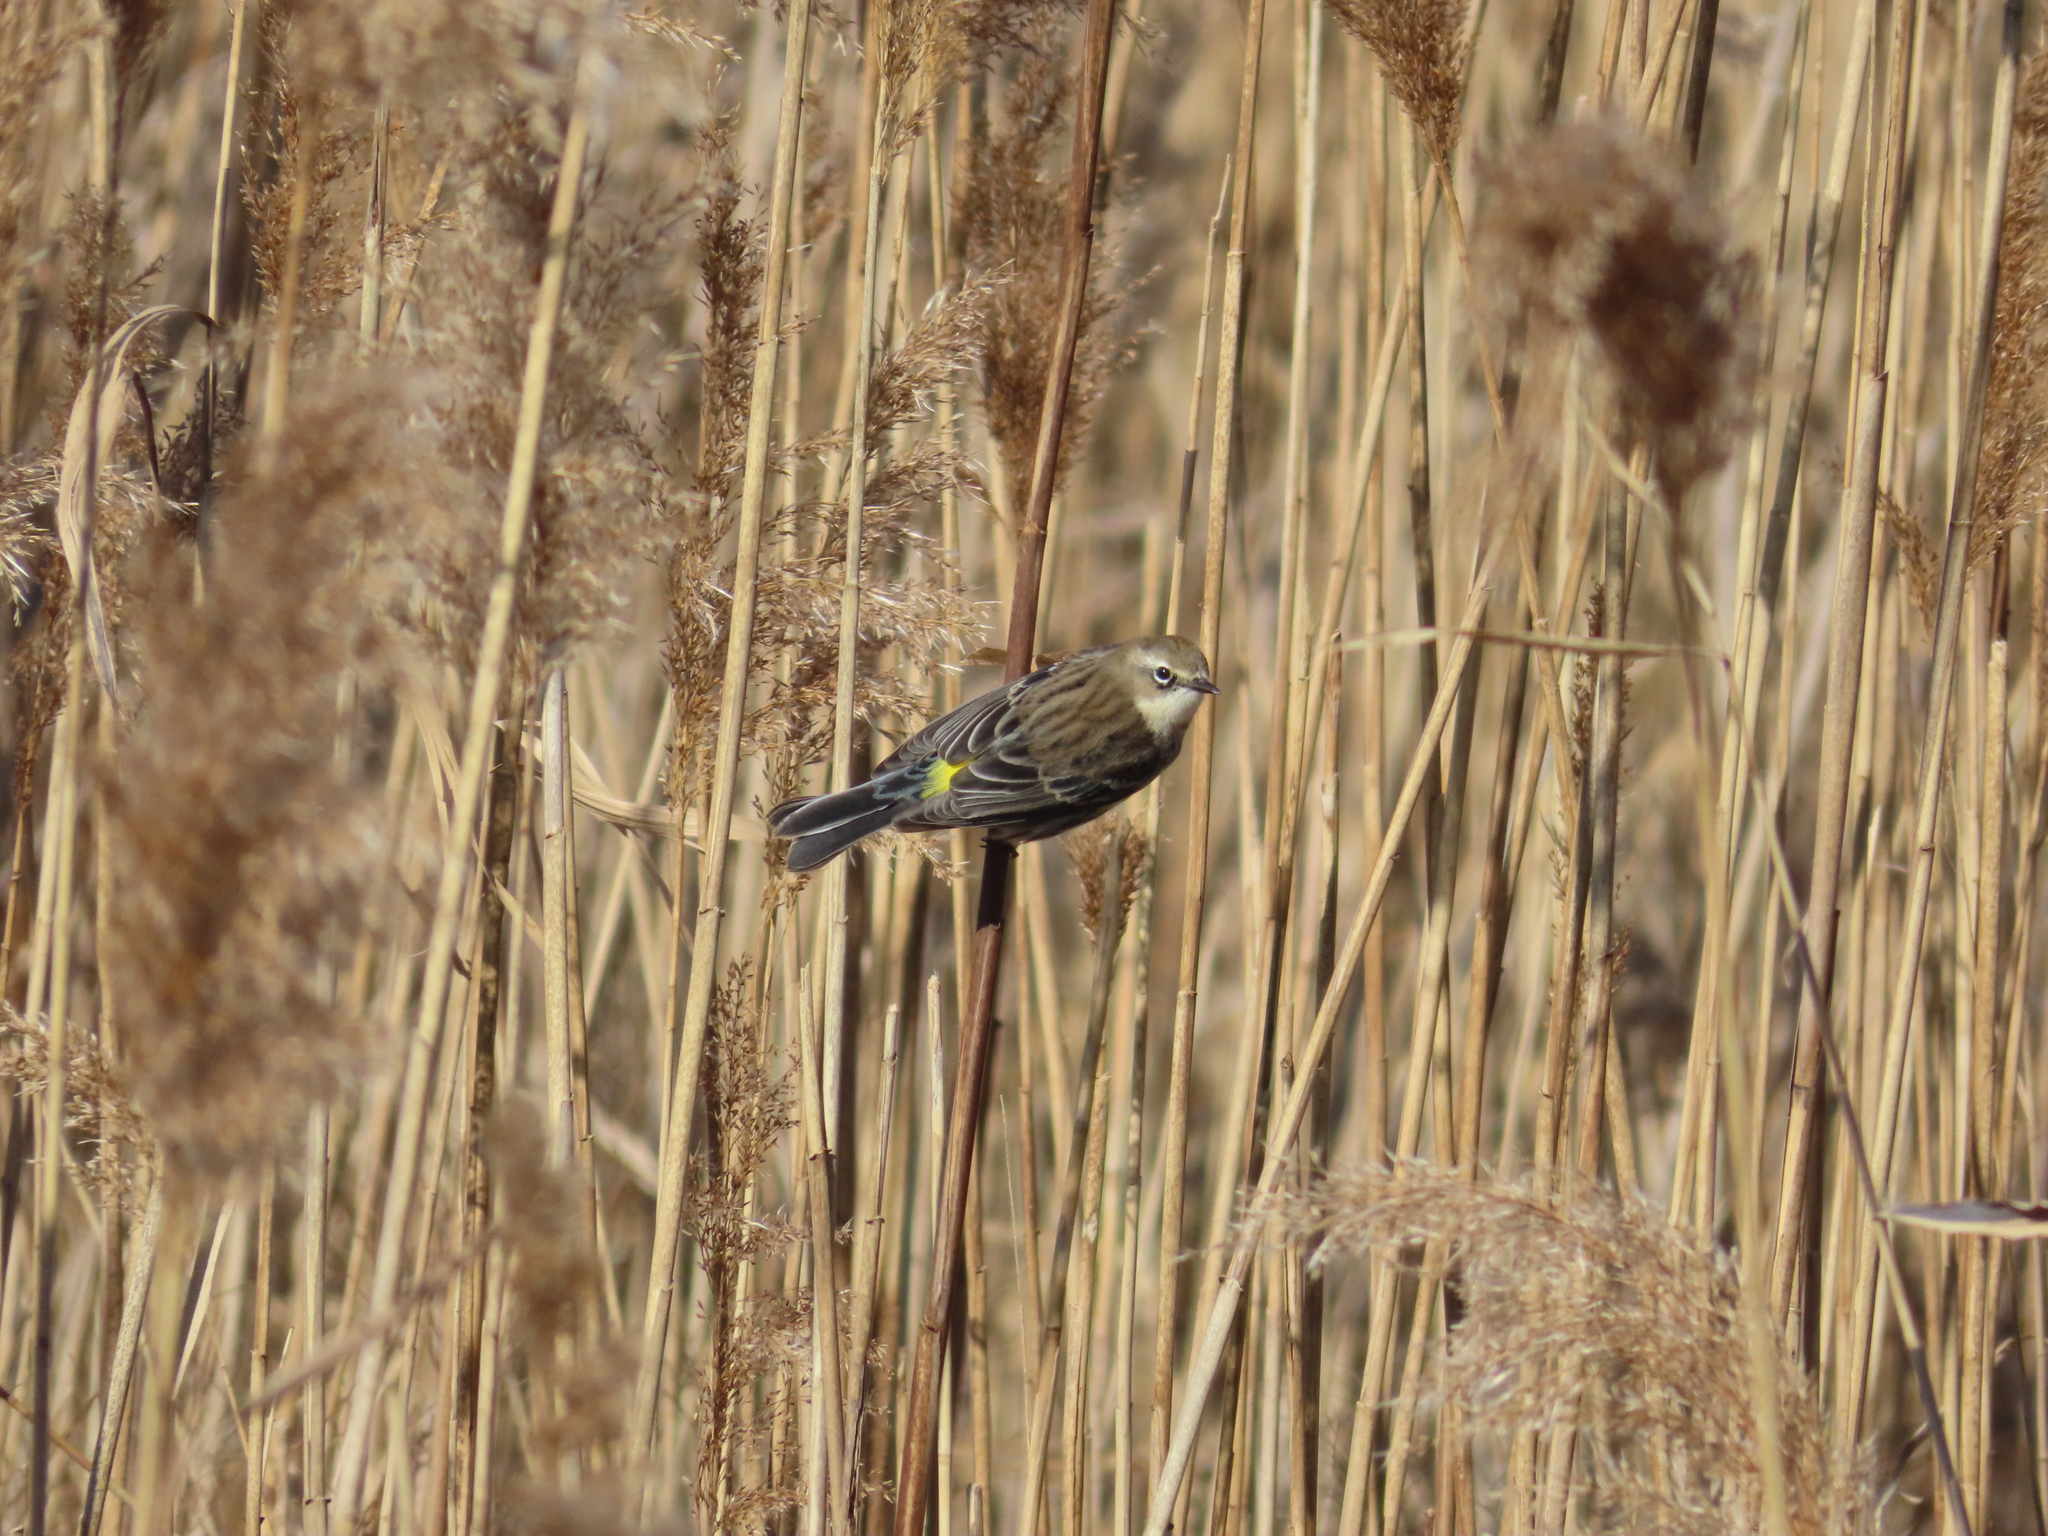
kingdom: Animalia
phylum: Chordata
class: Aves
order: Passeriformes
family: Parulidae
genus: Setophaga
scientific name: Setophaga coronata
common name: Myrtle warbler
